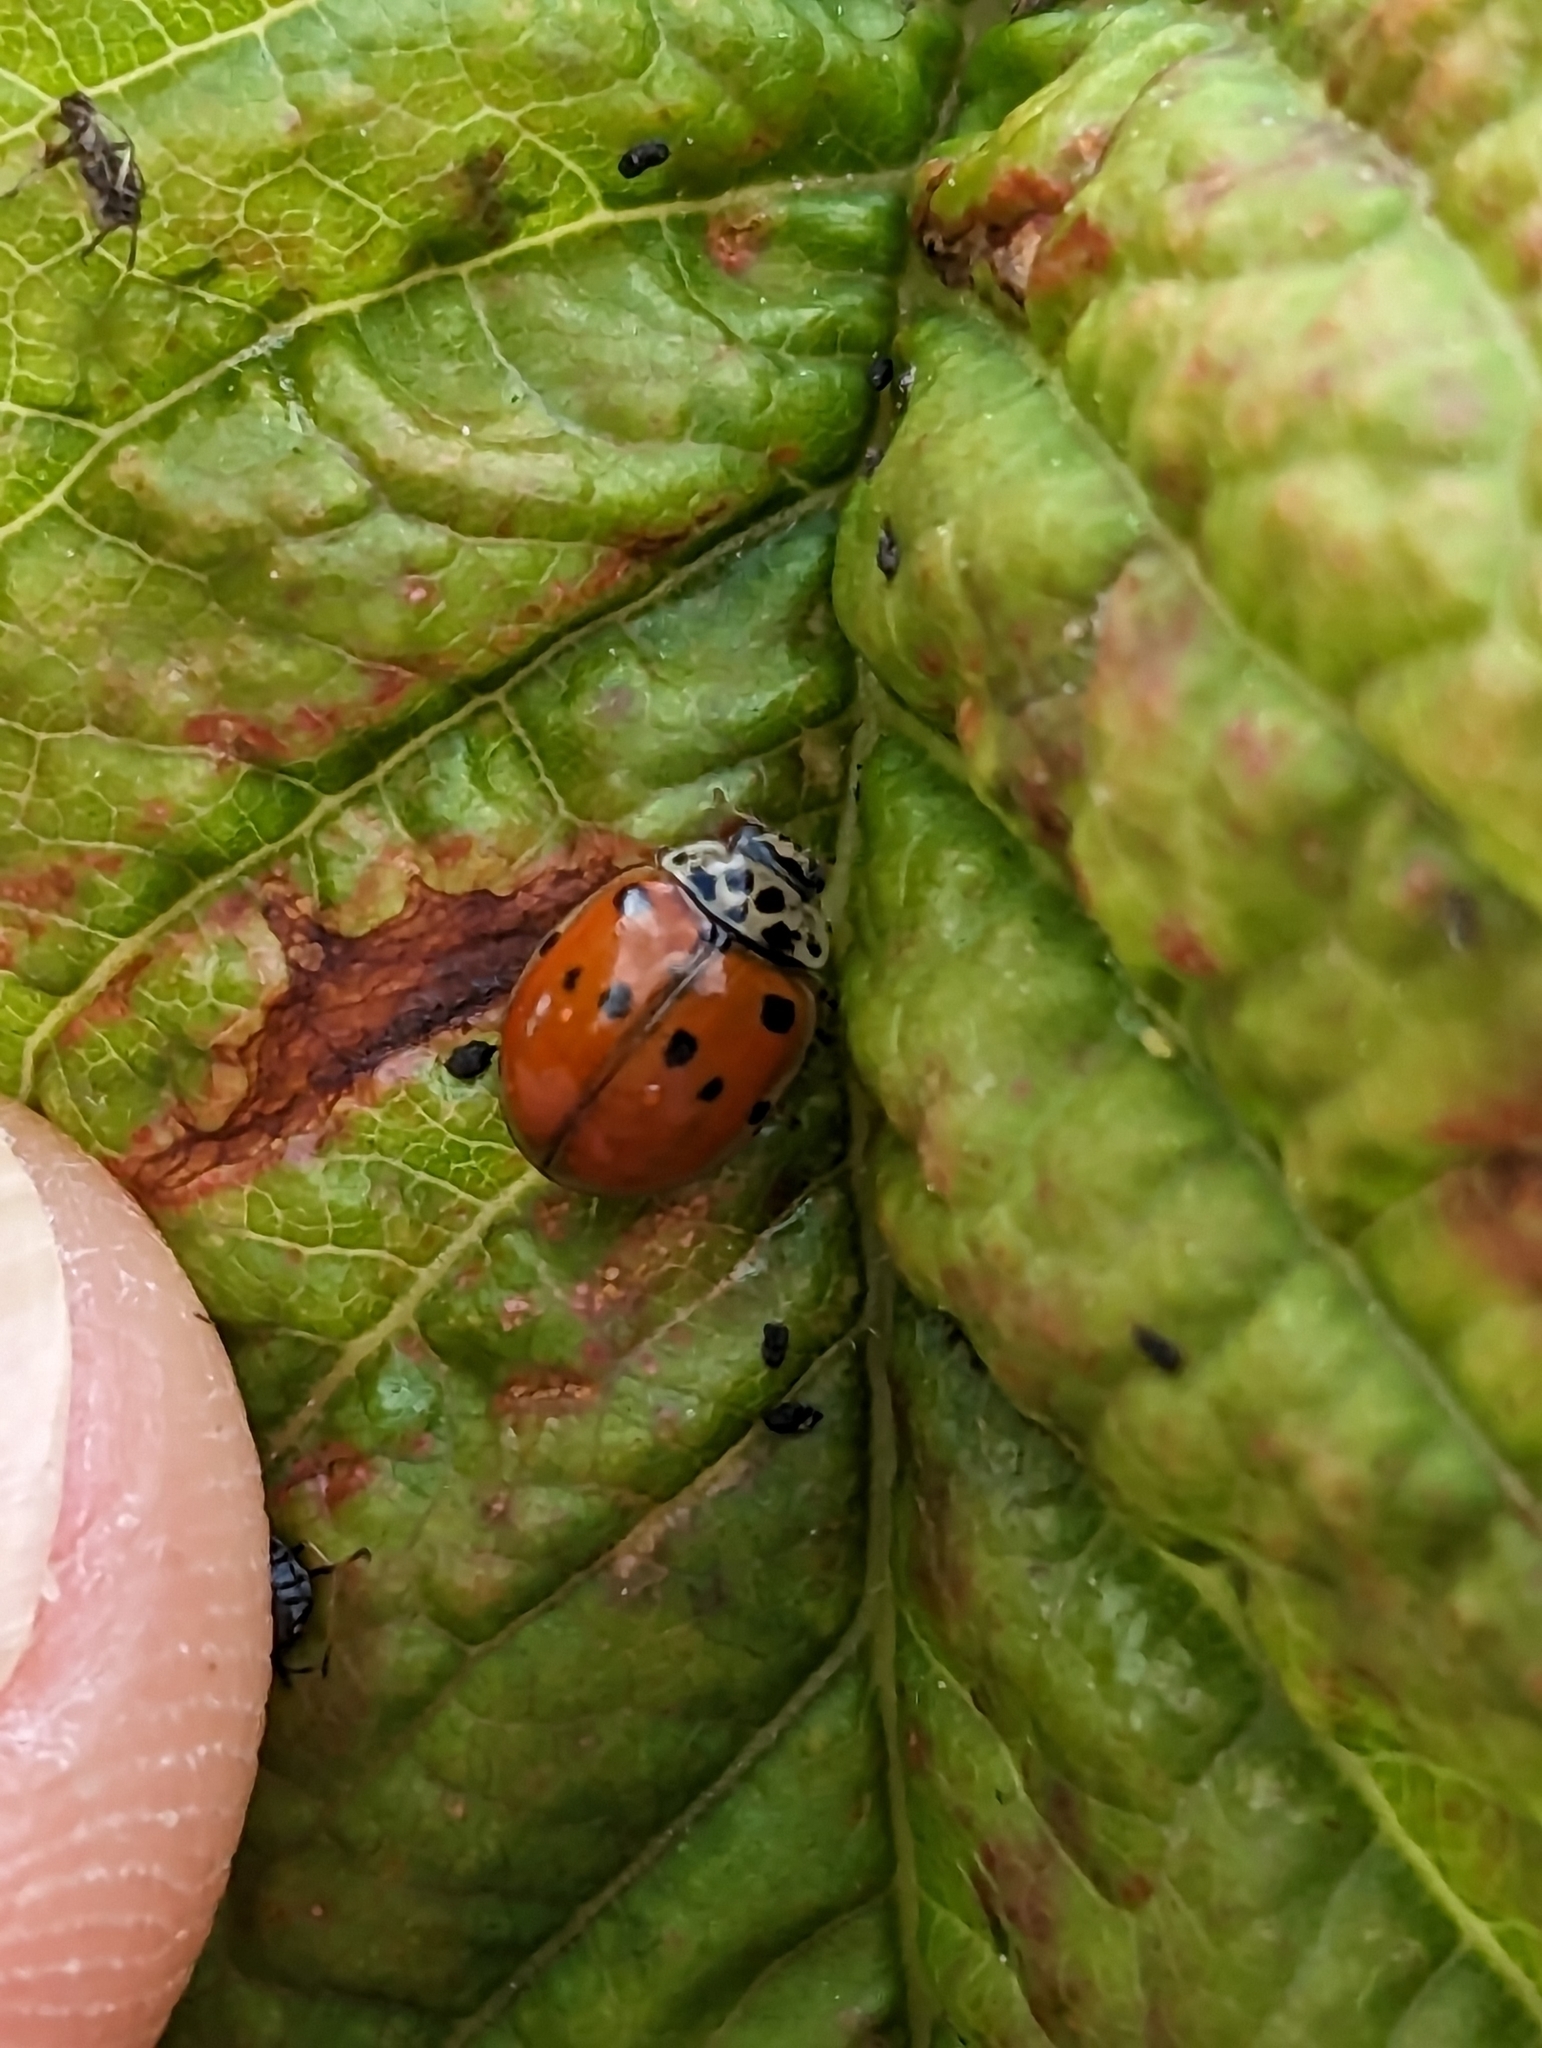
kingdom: Animalia
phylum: Arthropoda
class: Insecta
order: Coleoptera
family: Coccinellidae
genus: Adalia
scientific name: Adalia decempunctata
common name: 10-spot ladybird
